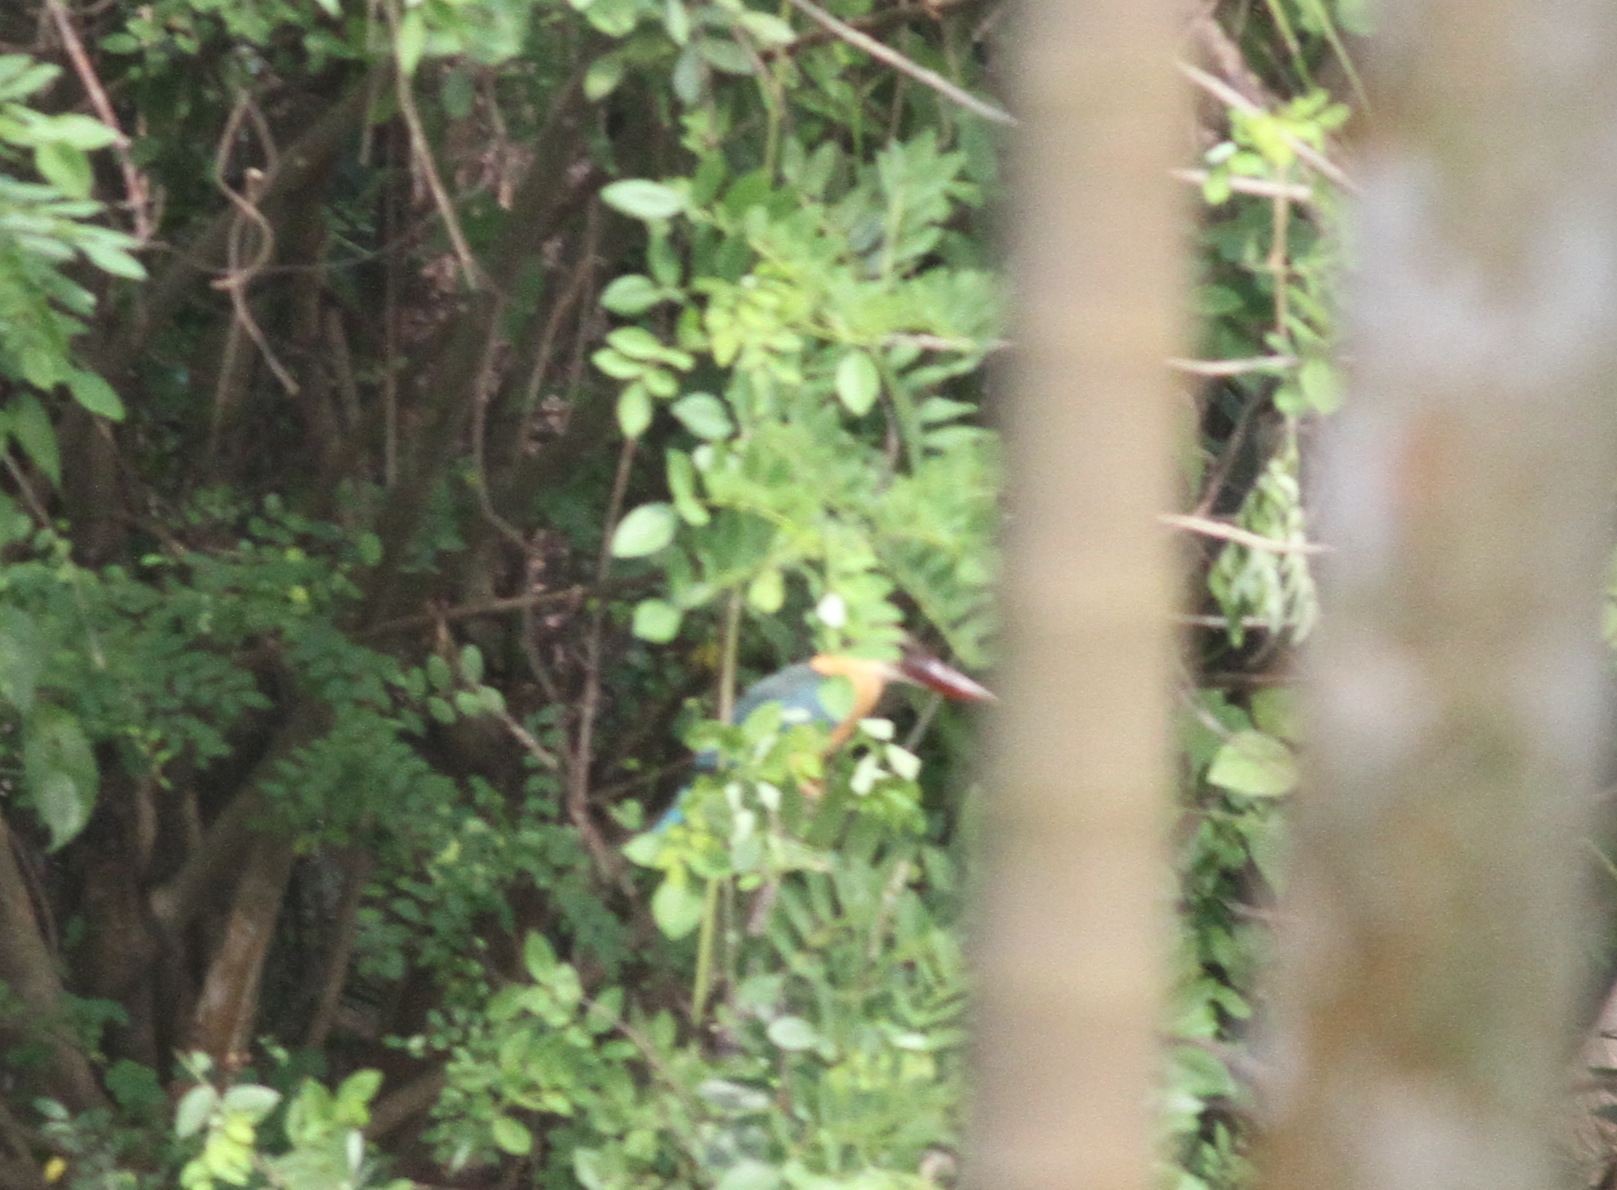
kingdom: Animalia
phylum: Chordata
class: Aves
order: Coraciiformes
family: Alcedinidae
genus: Pelargopsis
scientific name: Pelargopsis capensis
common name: Stork-billed kingfisher
